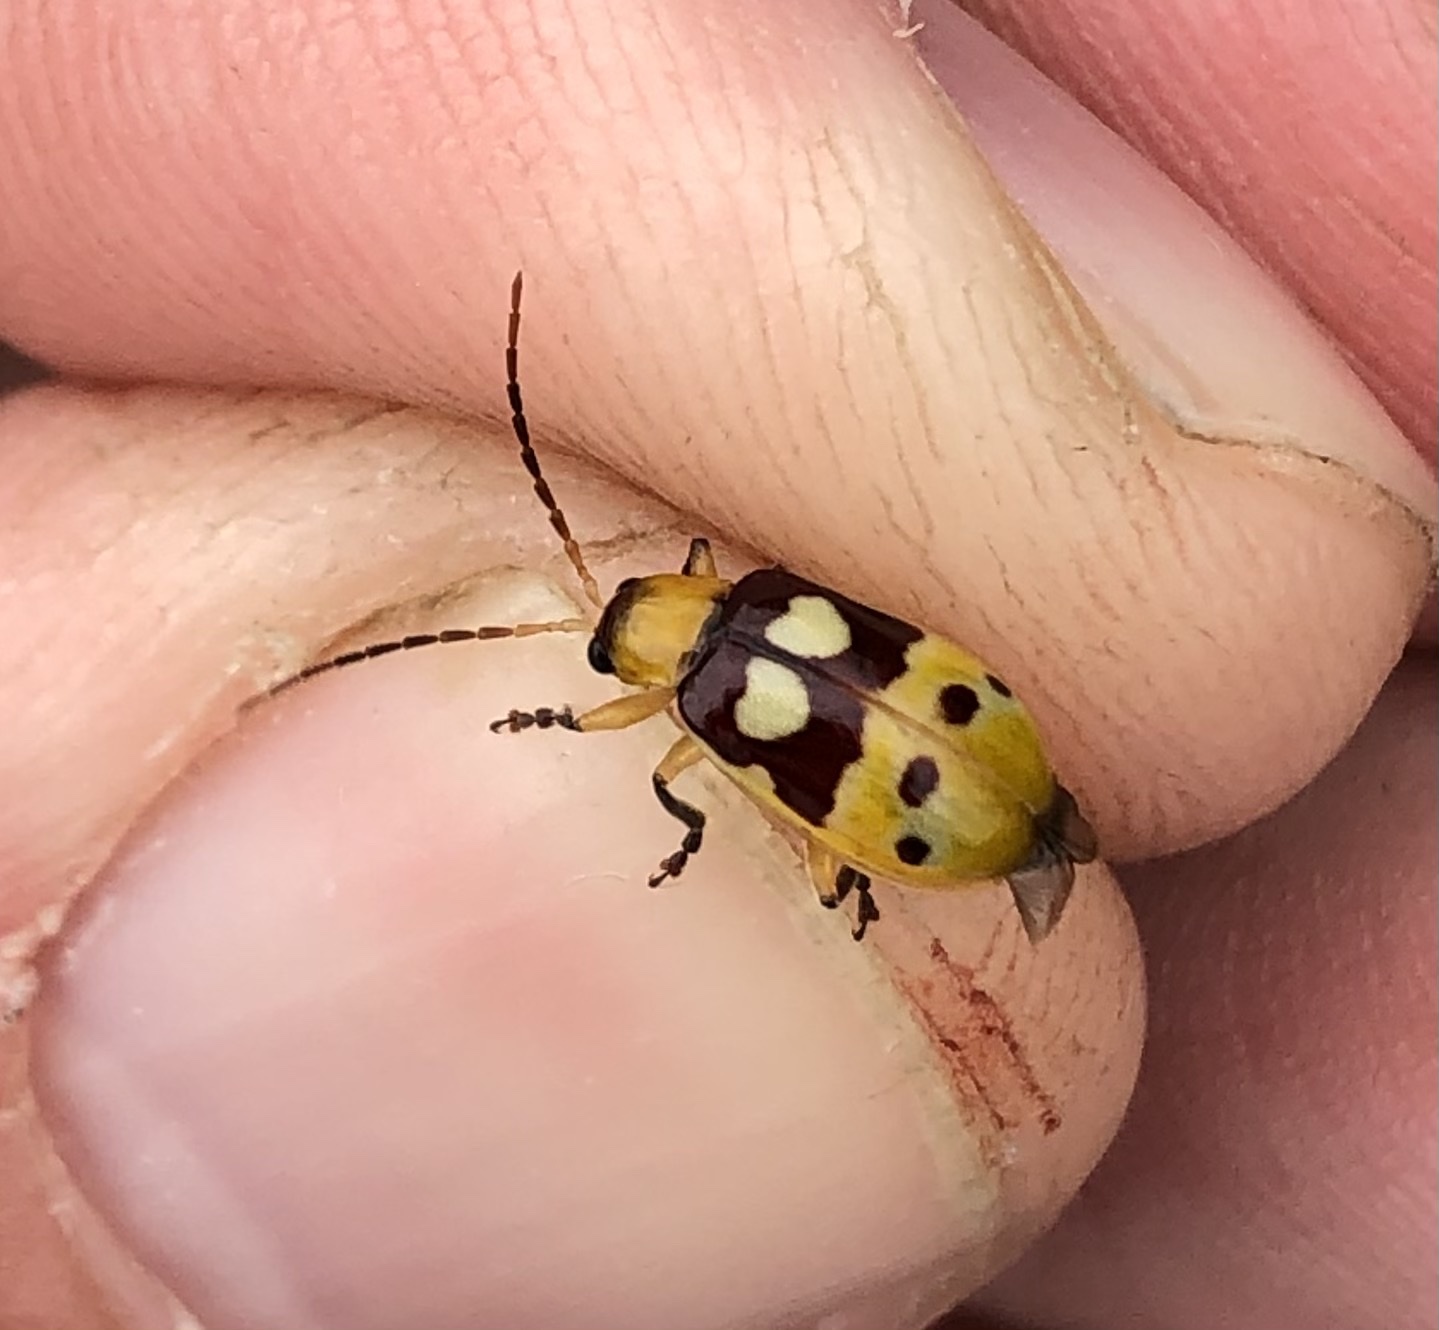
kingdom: Animalia
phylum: Arthropoda
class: Insecta
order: Coleoptera
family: Chrysomelidae
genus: Paranapiacaba
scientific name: Paranapiacaba connexa
